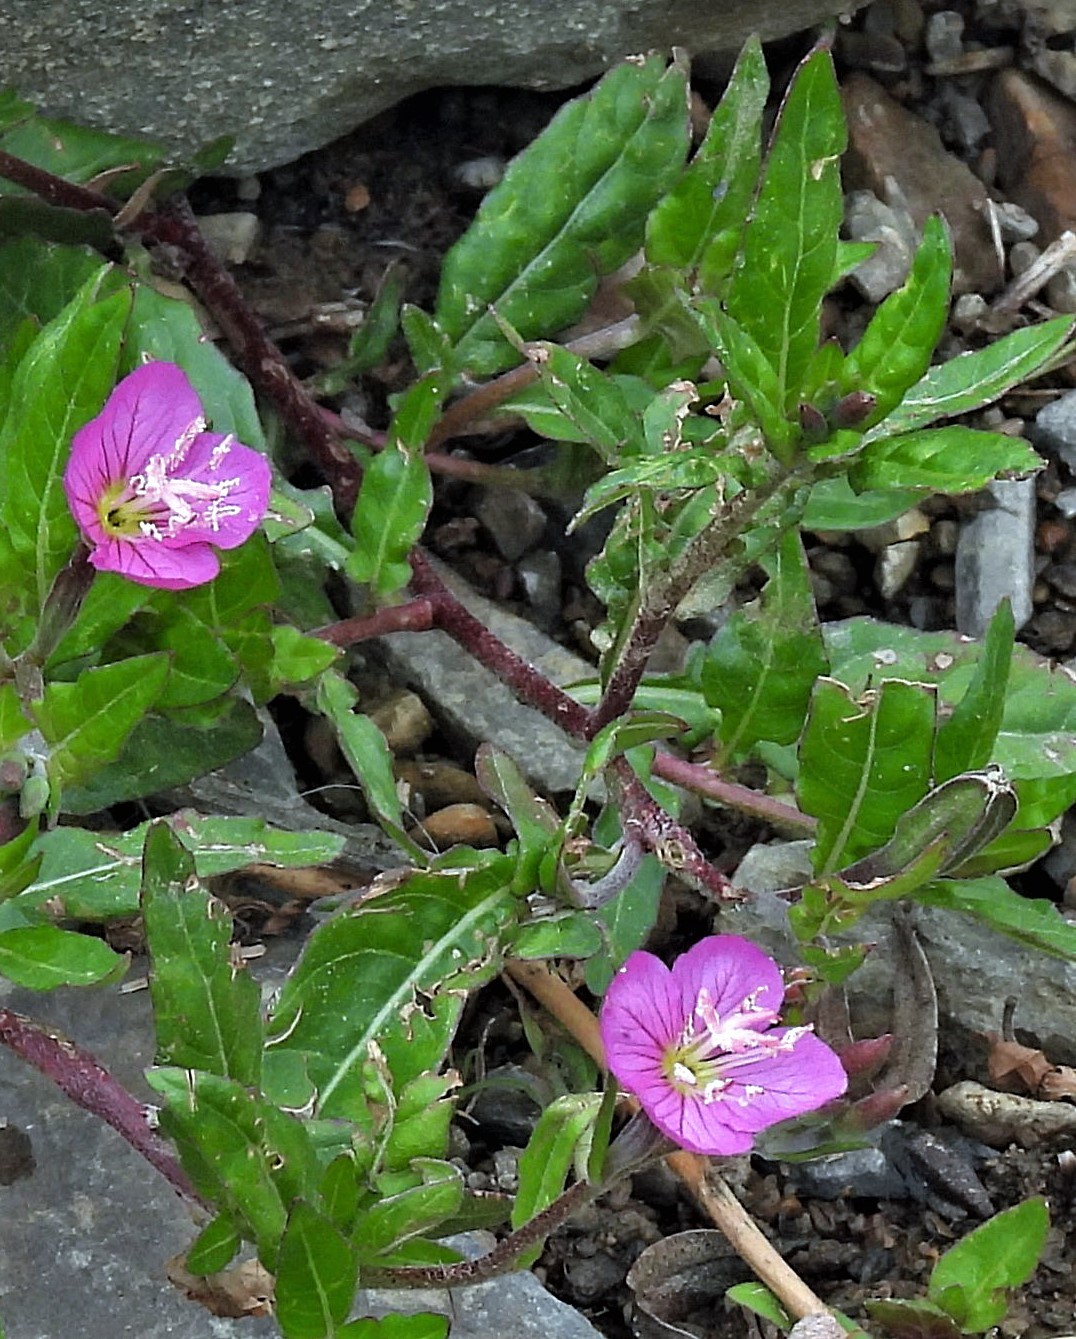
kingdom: Plantae
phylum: Tracheophyta
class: Magnoliopsida
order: Myrtales
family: Onagraceae
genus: Oenothera
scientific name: Oenothera rosea
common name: Rosy evening-primrose
